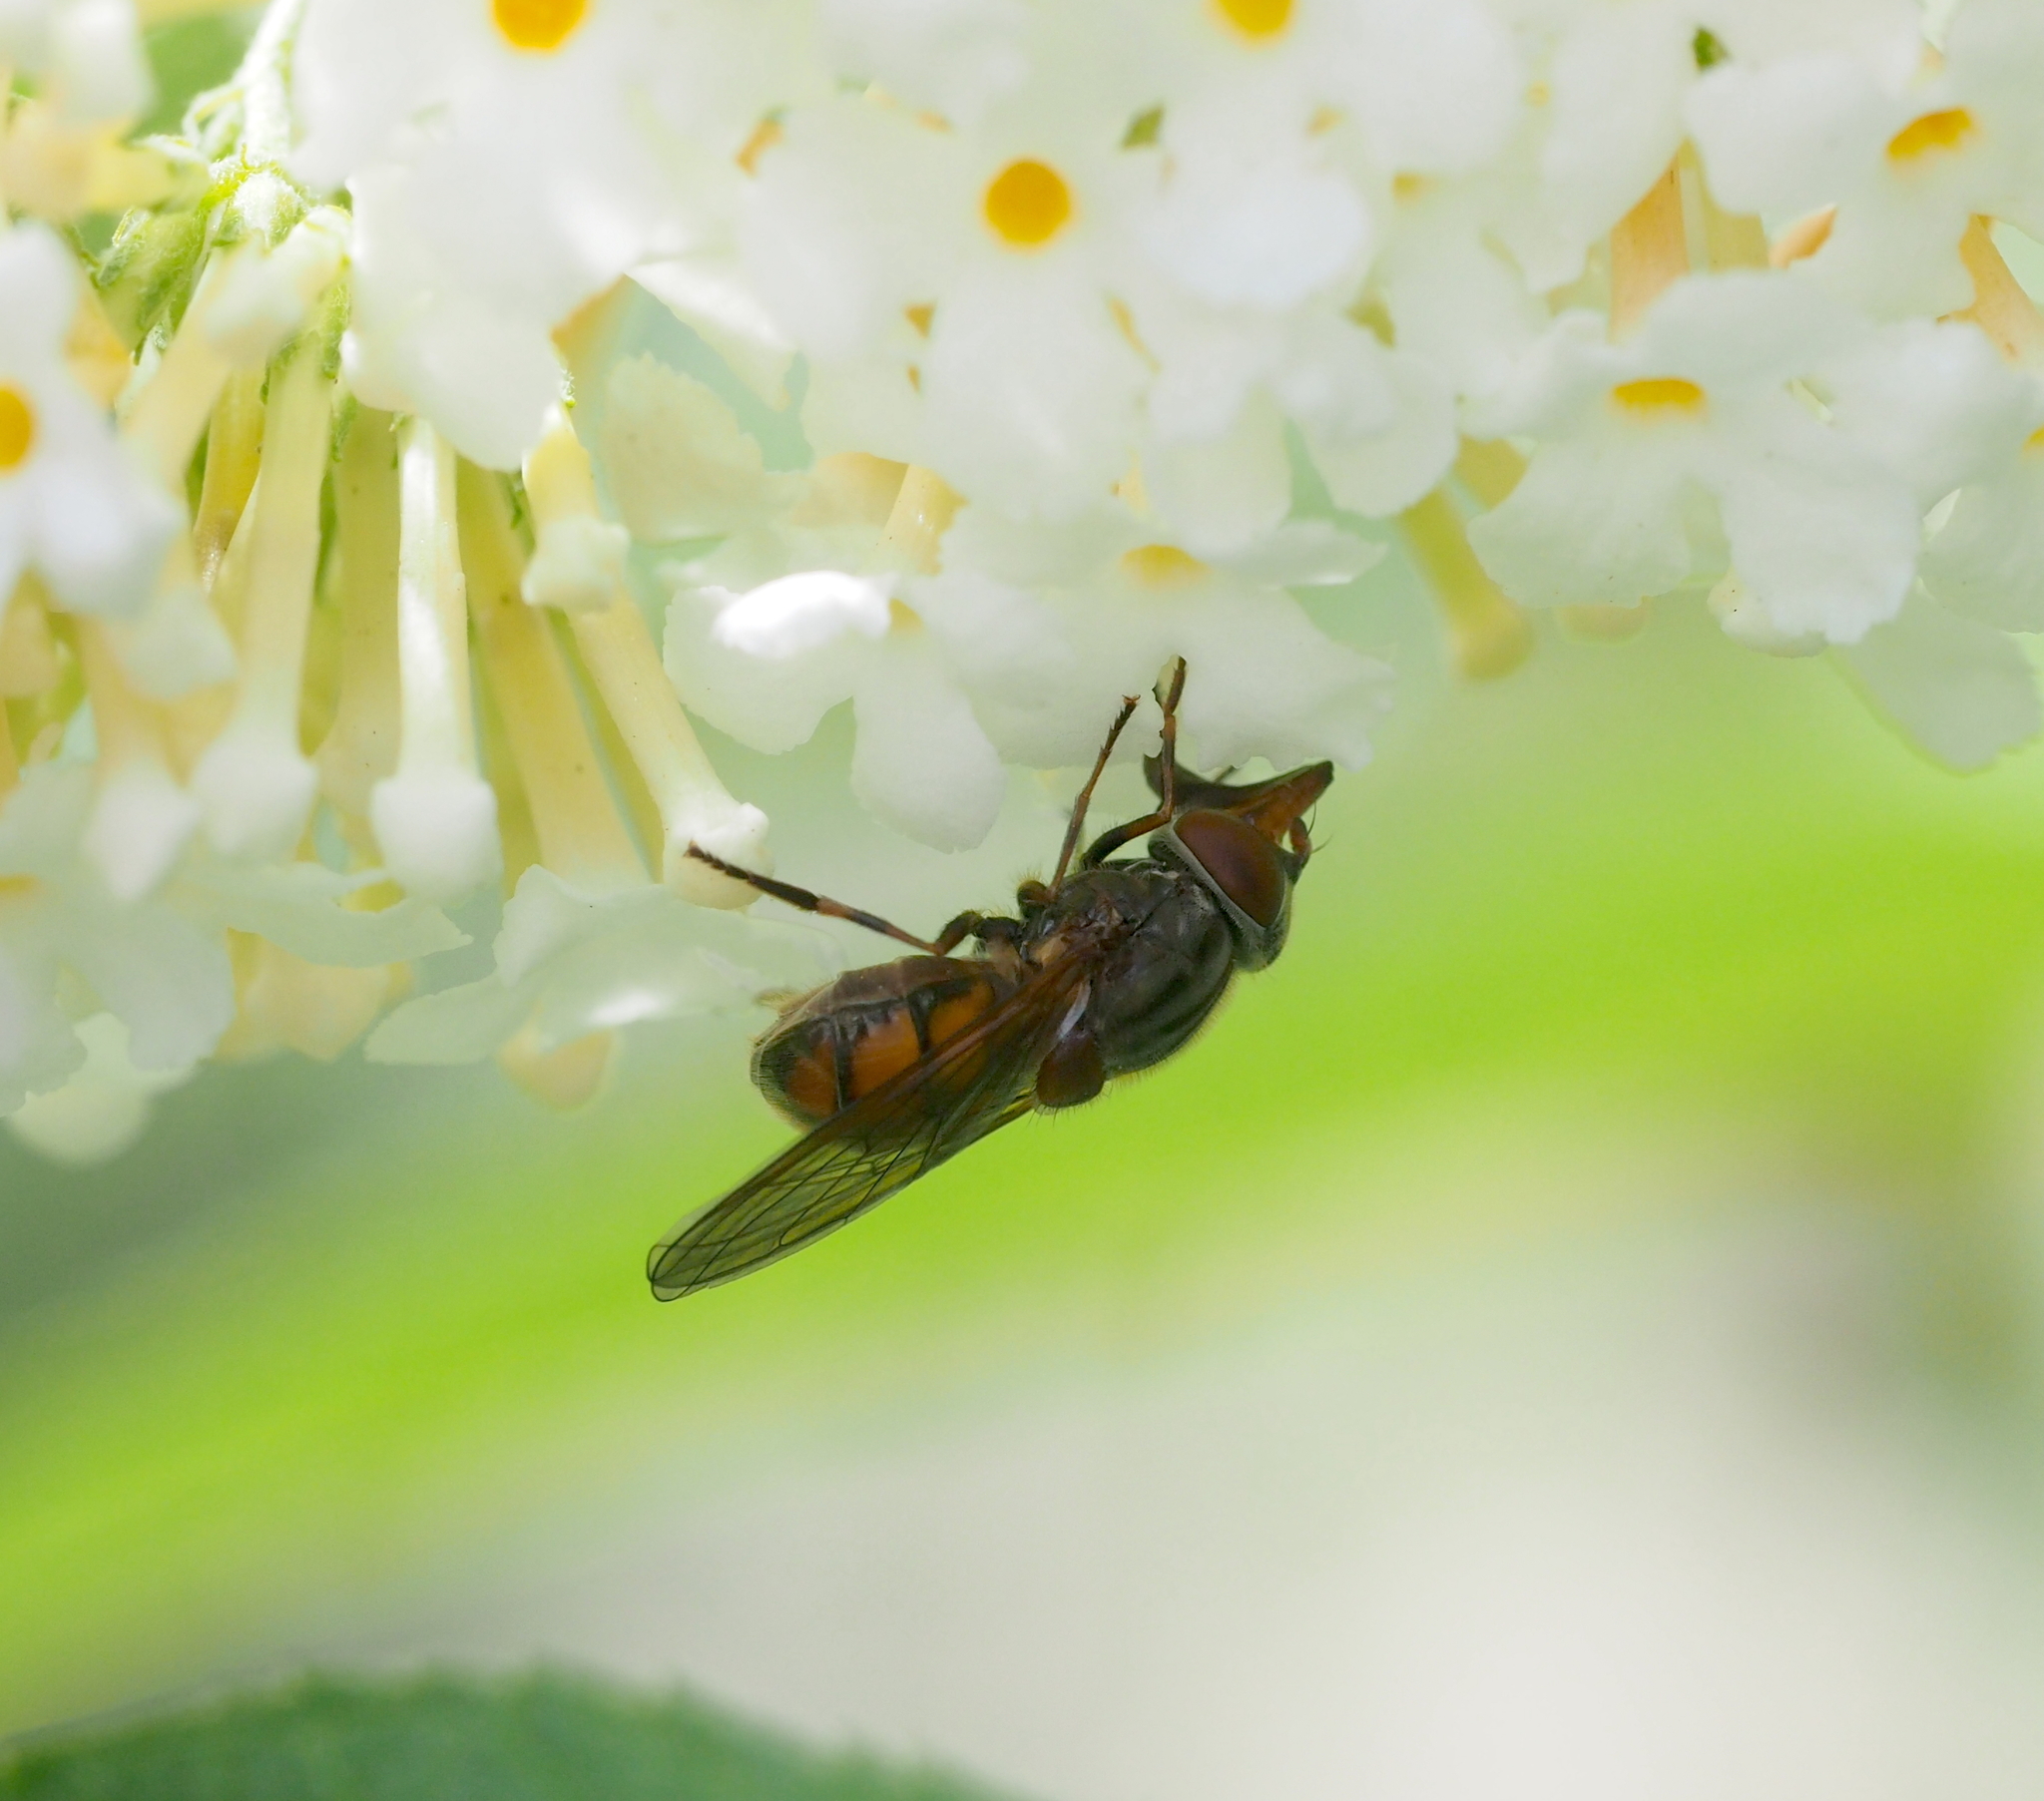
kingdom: Animalia
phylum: Arthropoda
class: Insecta
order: Diptera
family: Syrphidae
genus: Rhingia
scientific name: Rhingia campestris
